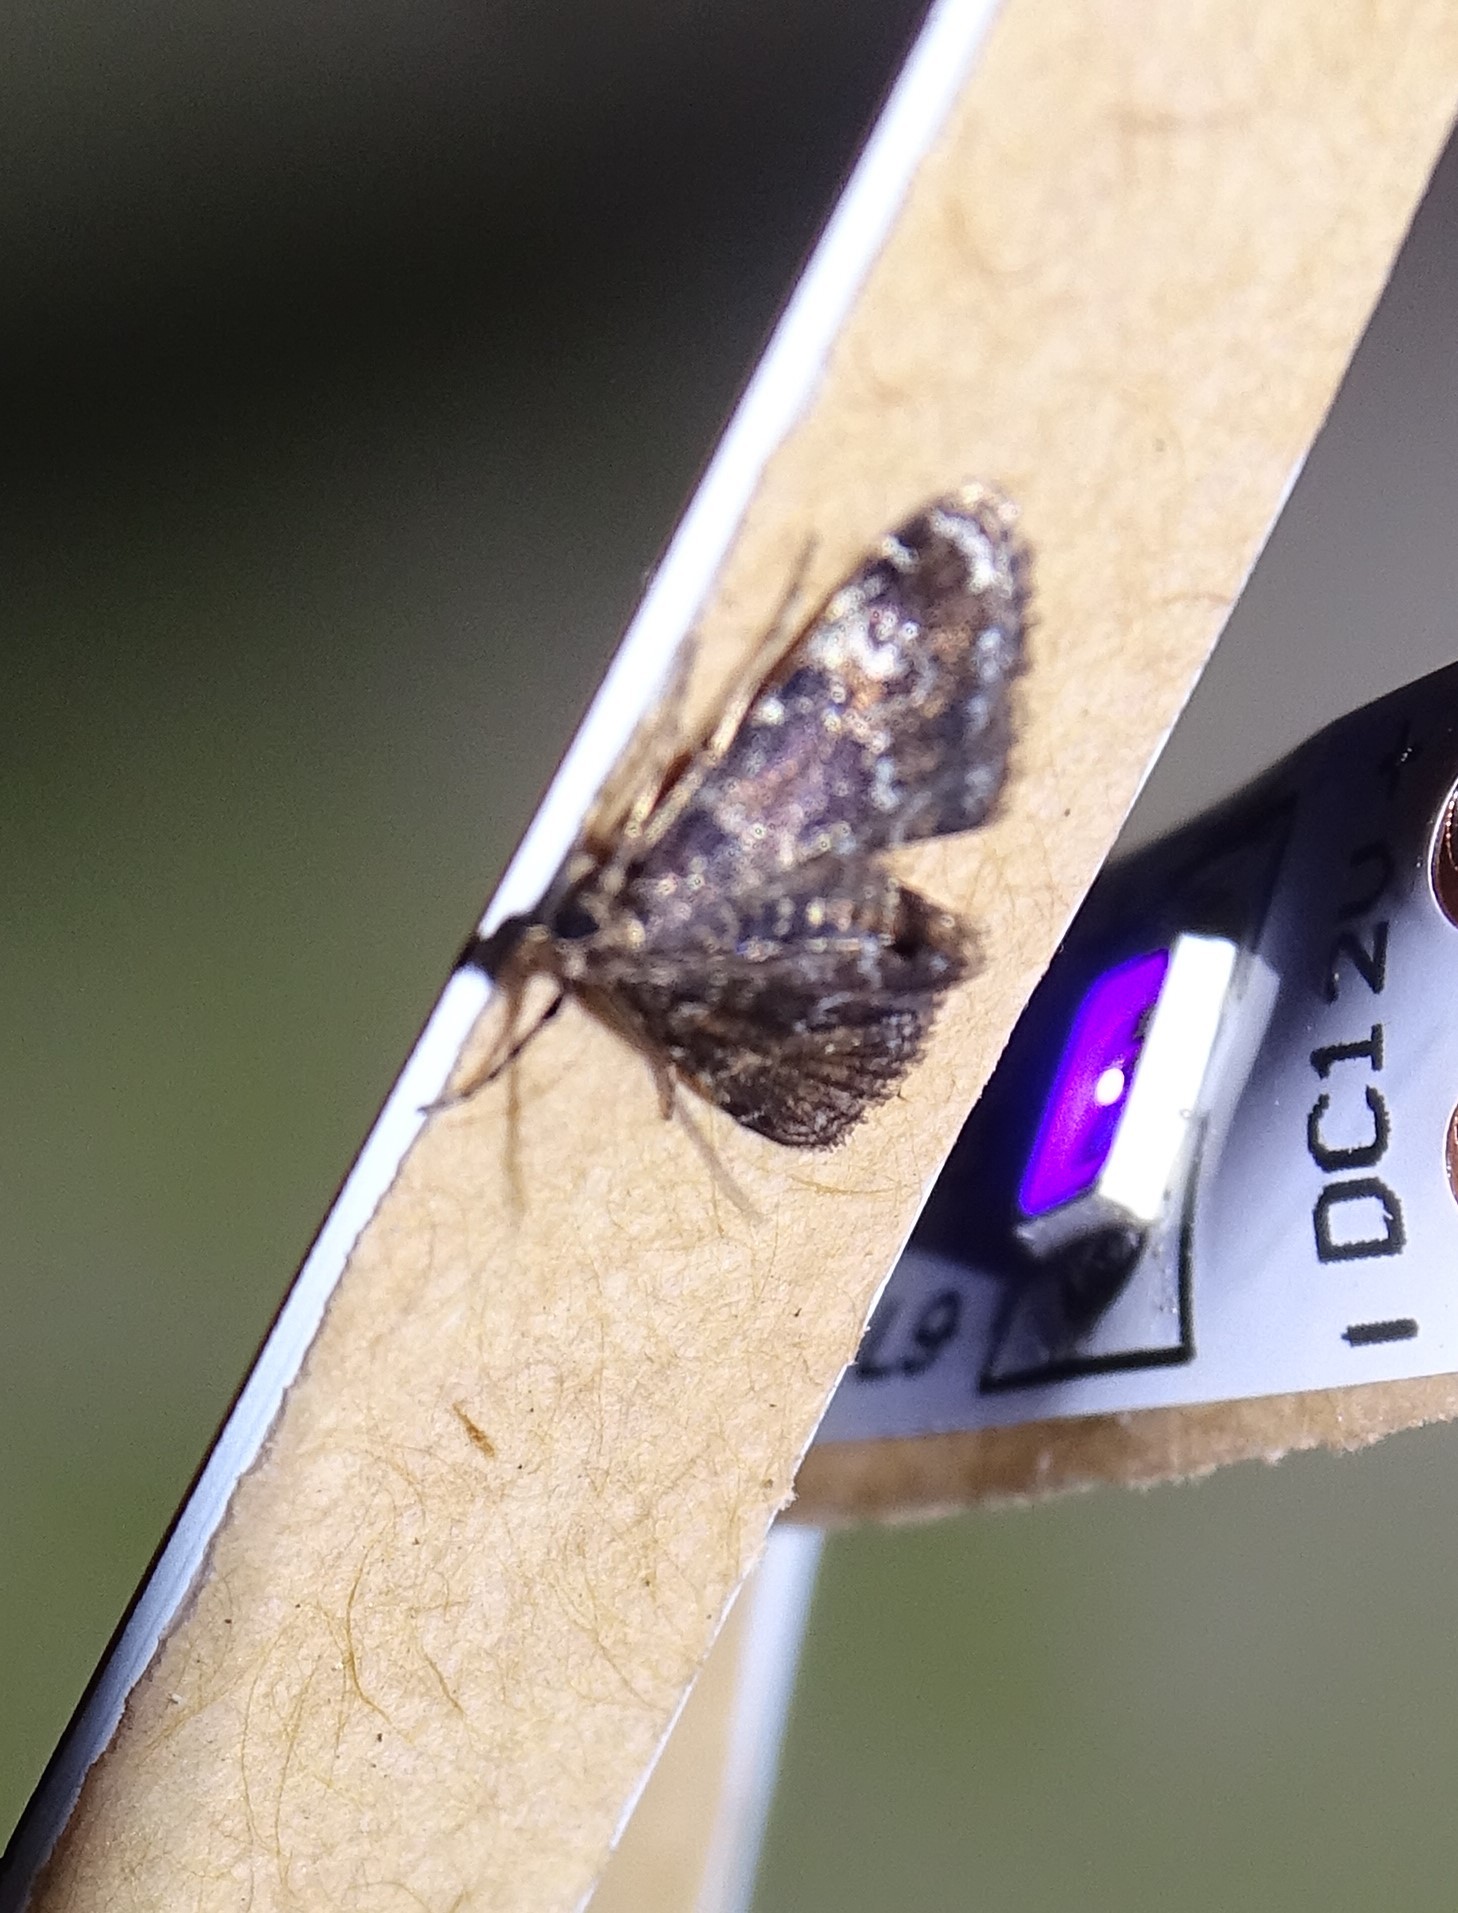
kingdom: Animalia
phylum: Arthropoda
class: Insecta
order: Lepidoptera
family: Crambidae
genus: Elophila
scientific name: Elophila obliteralis
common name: Waterlily leafcutter moth
